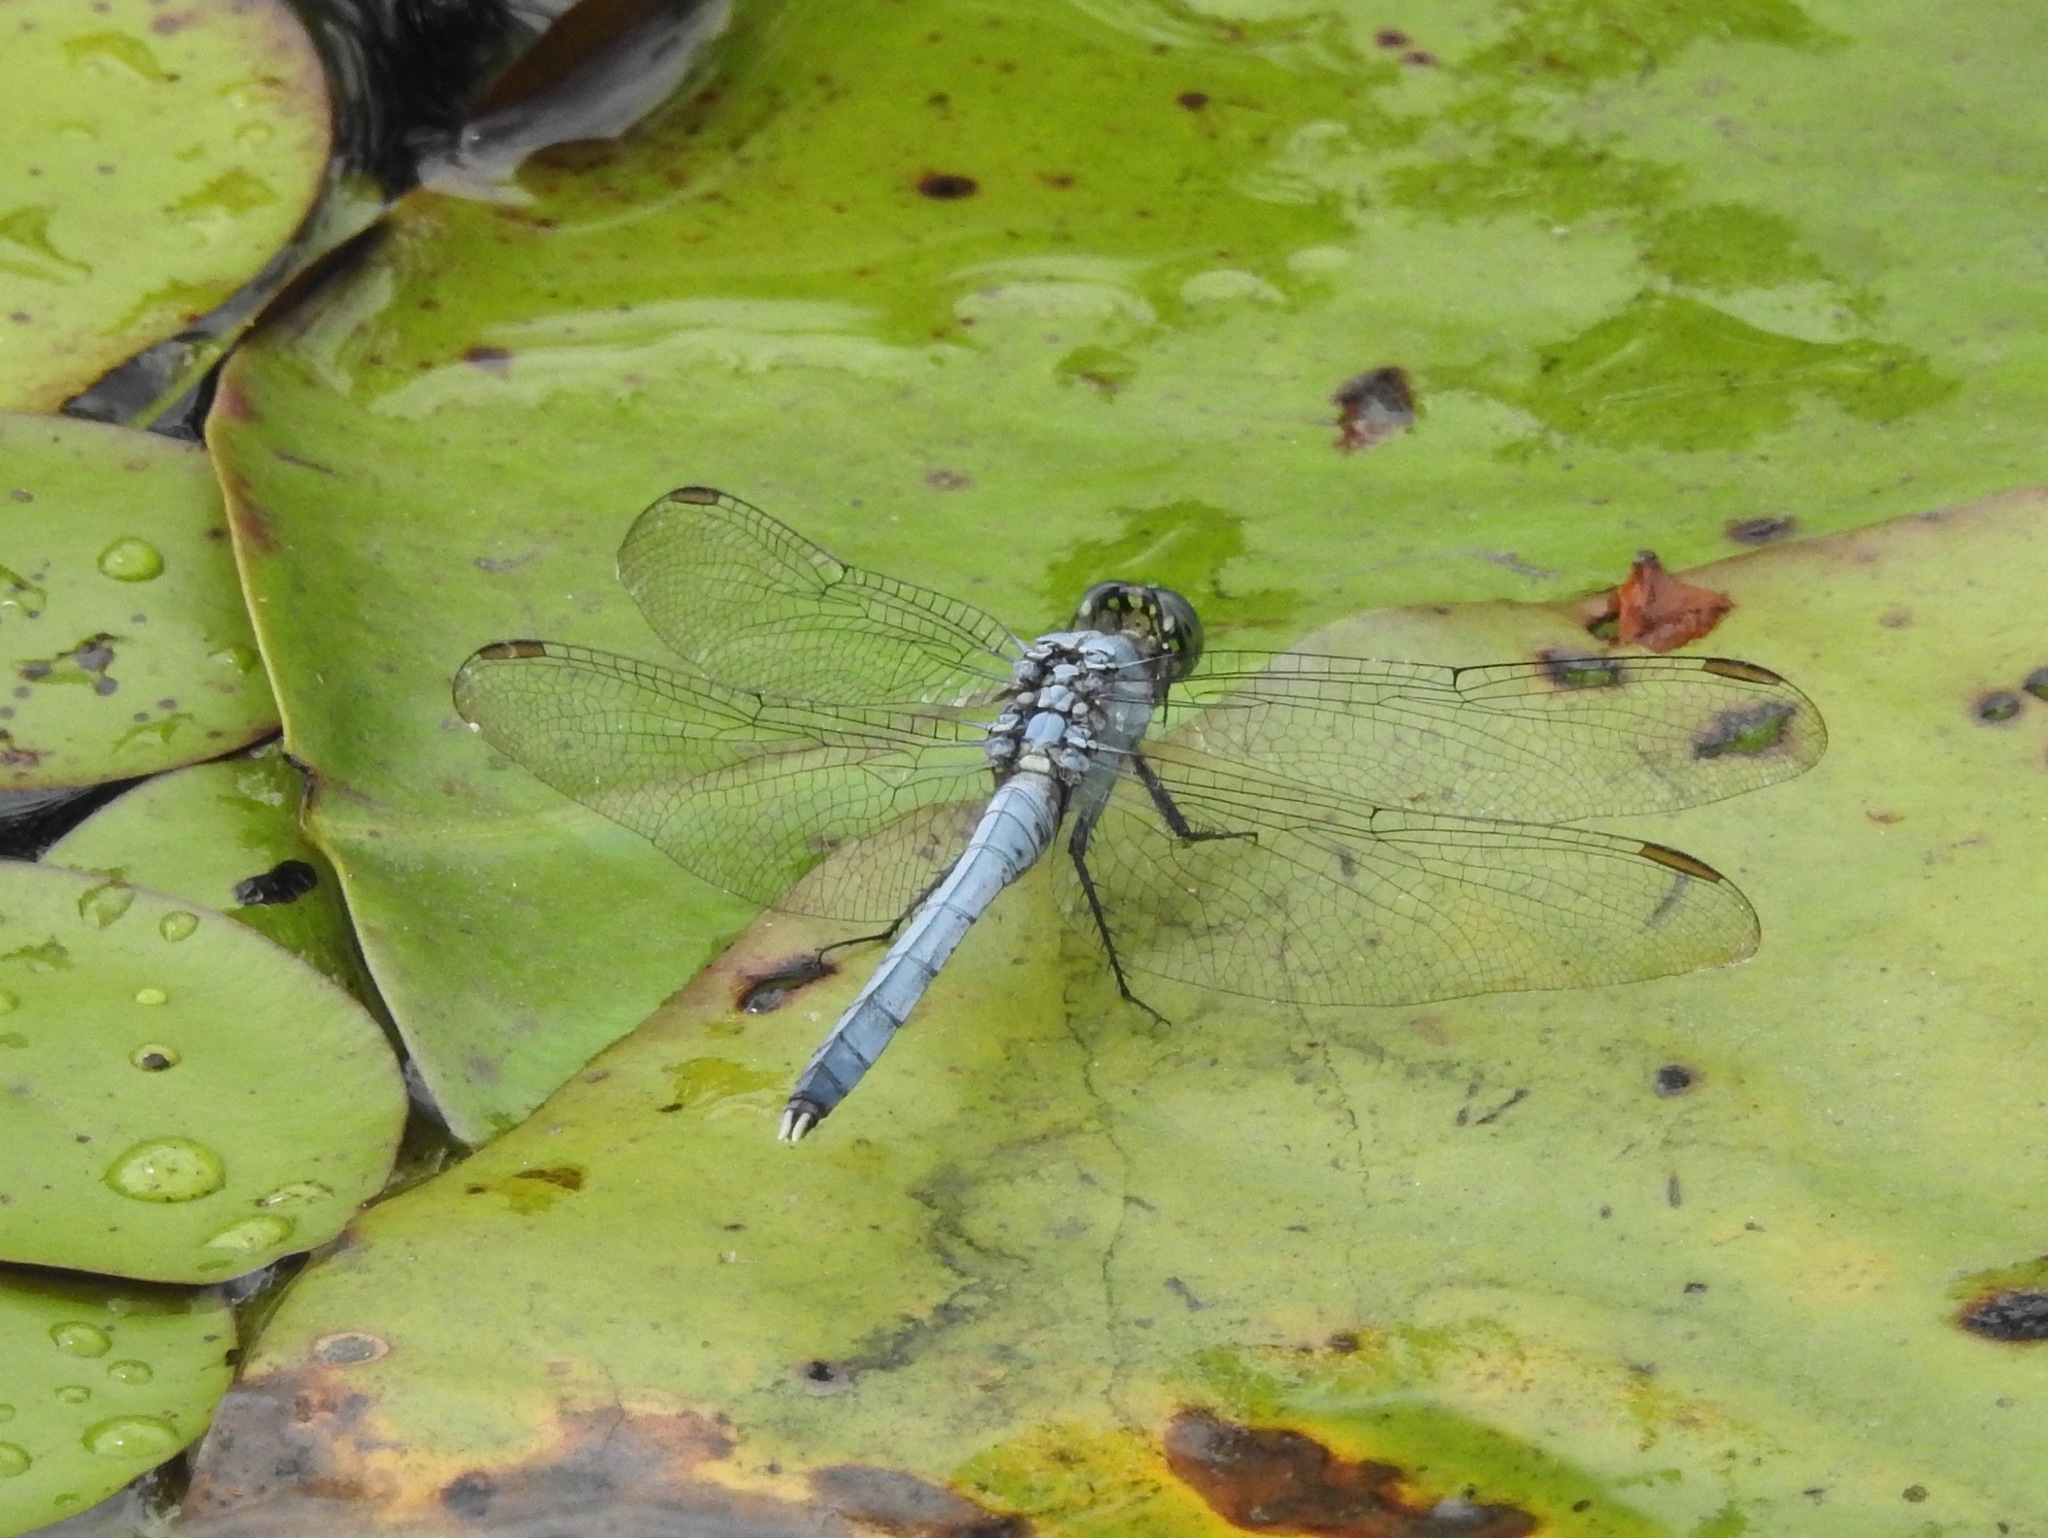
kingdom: Animalia
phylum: Arthropoda
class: Insecta
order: Odonata
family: Libellulidae
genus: Erythemis
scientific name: Erythemis simplicicollis
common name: Eastern pondhawk
